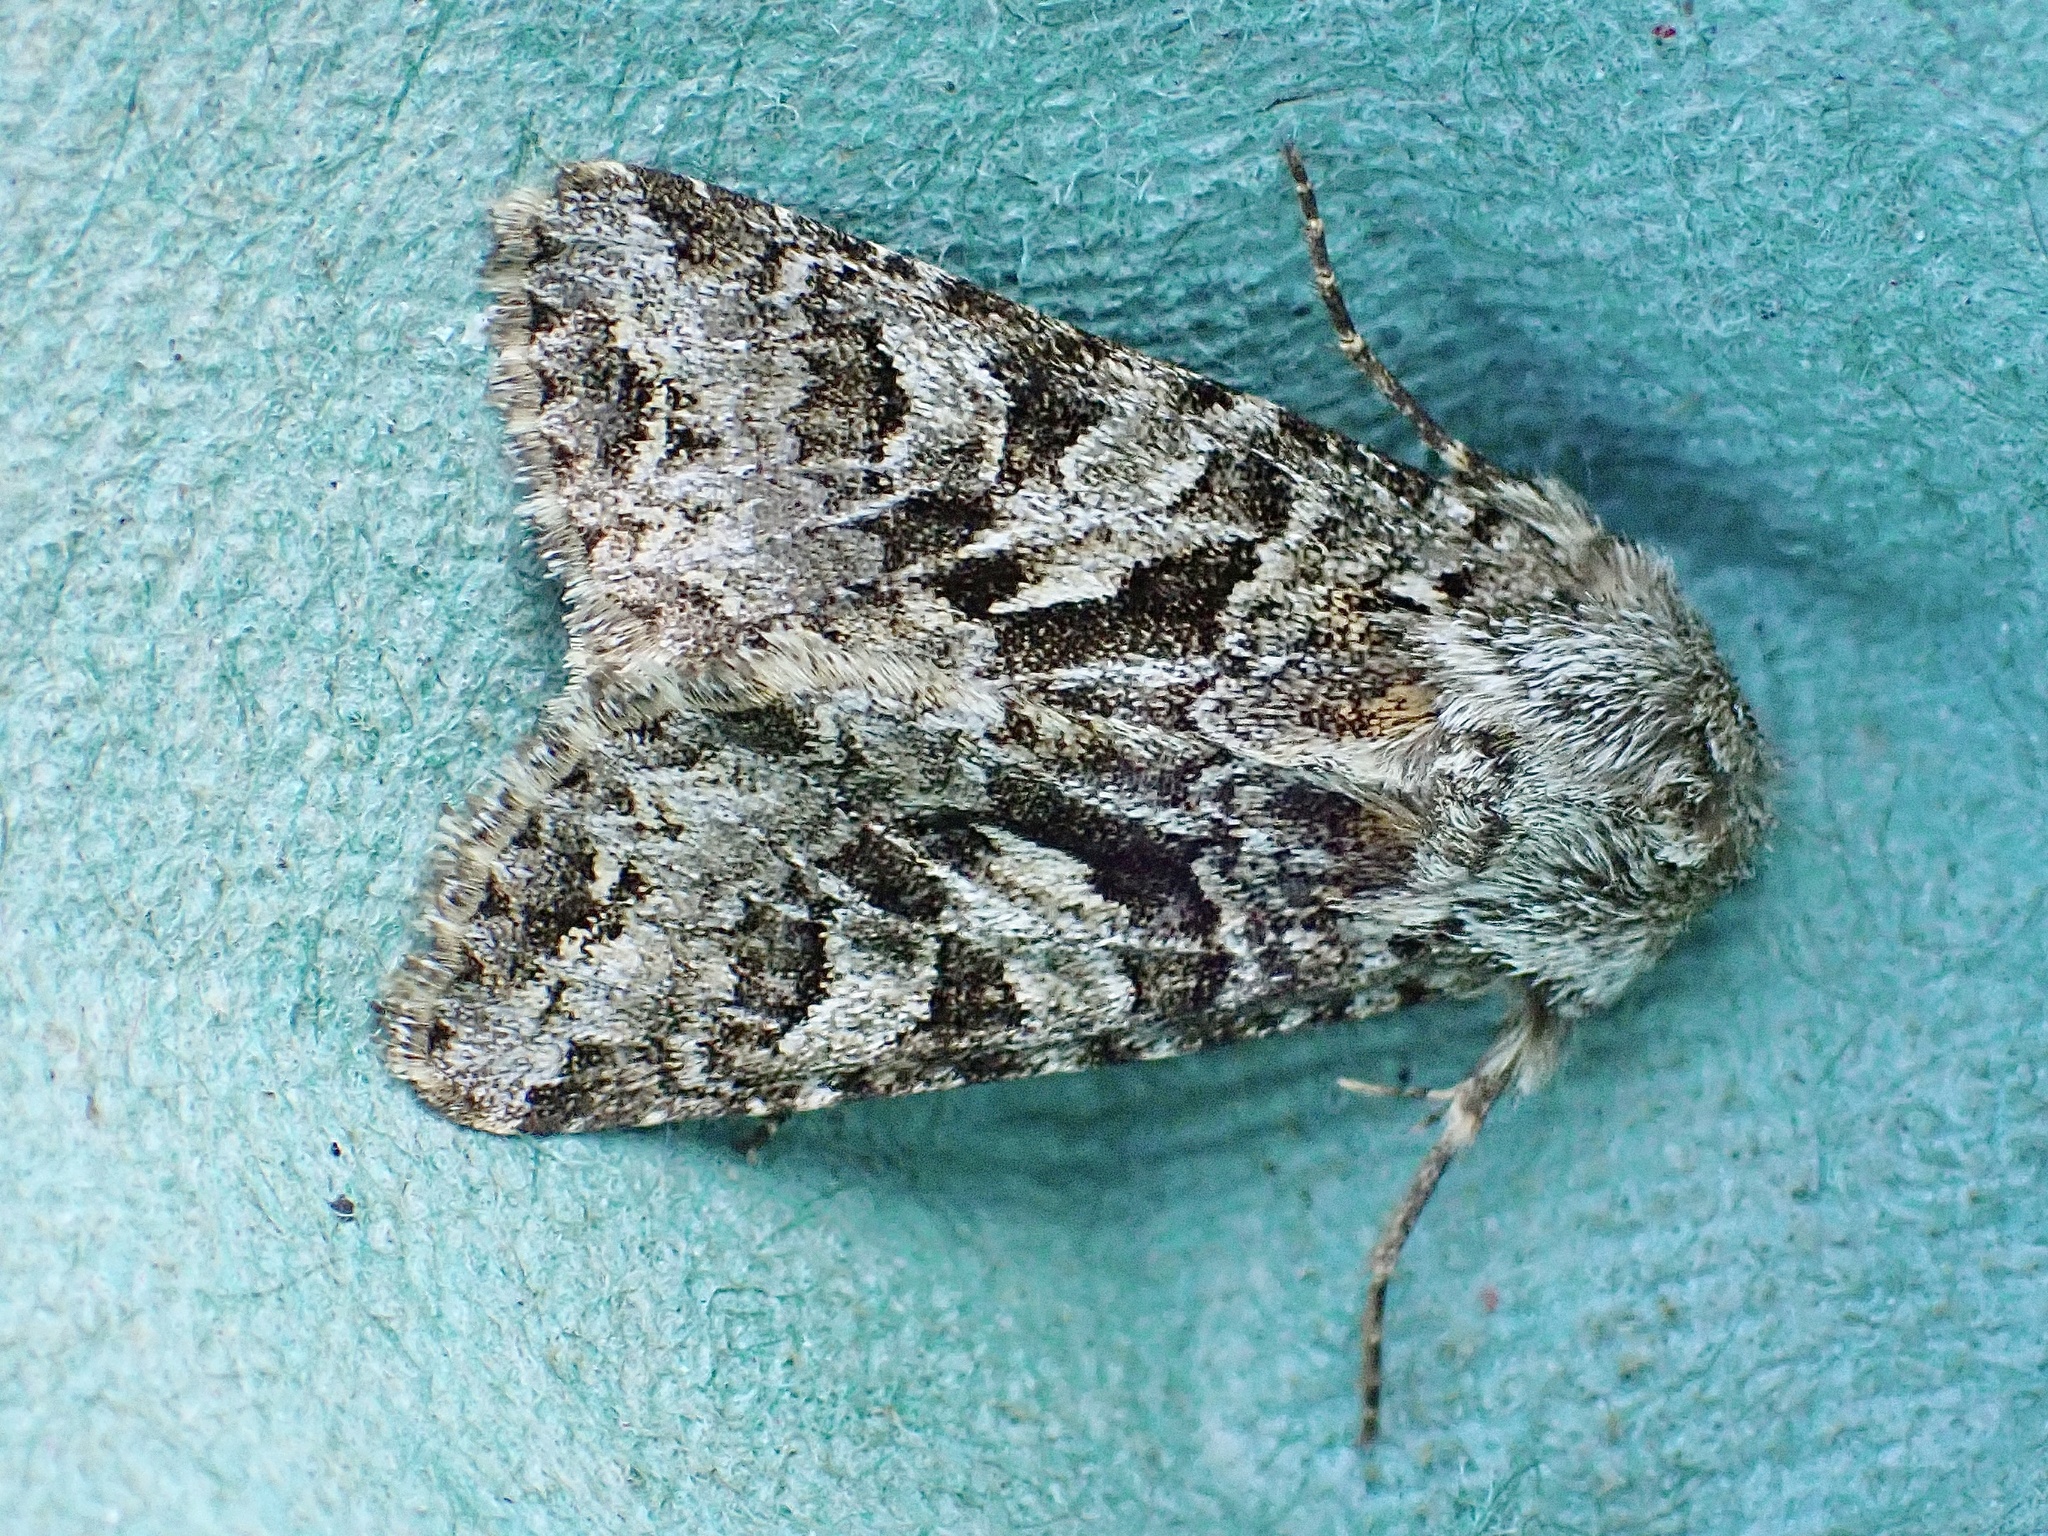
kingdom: Animalia
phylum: Arthropoda
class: Insecta
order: Lepidoptera
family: Noctuidae
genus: Hada
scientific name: Hada plebeja
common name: Shears
